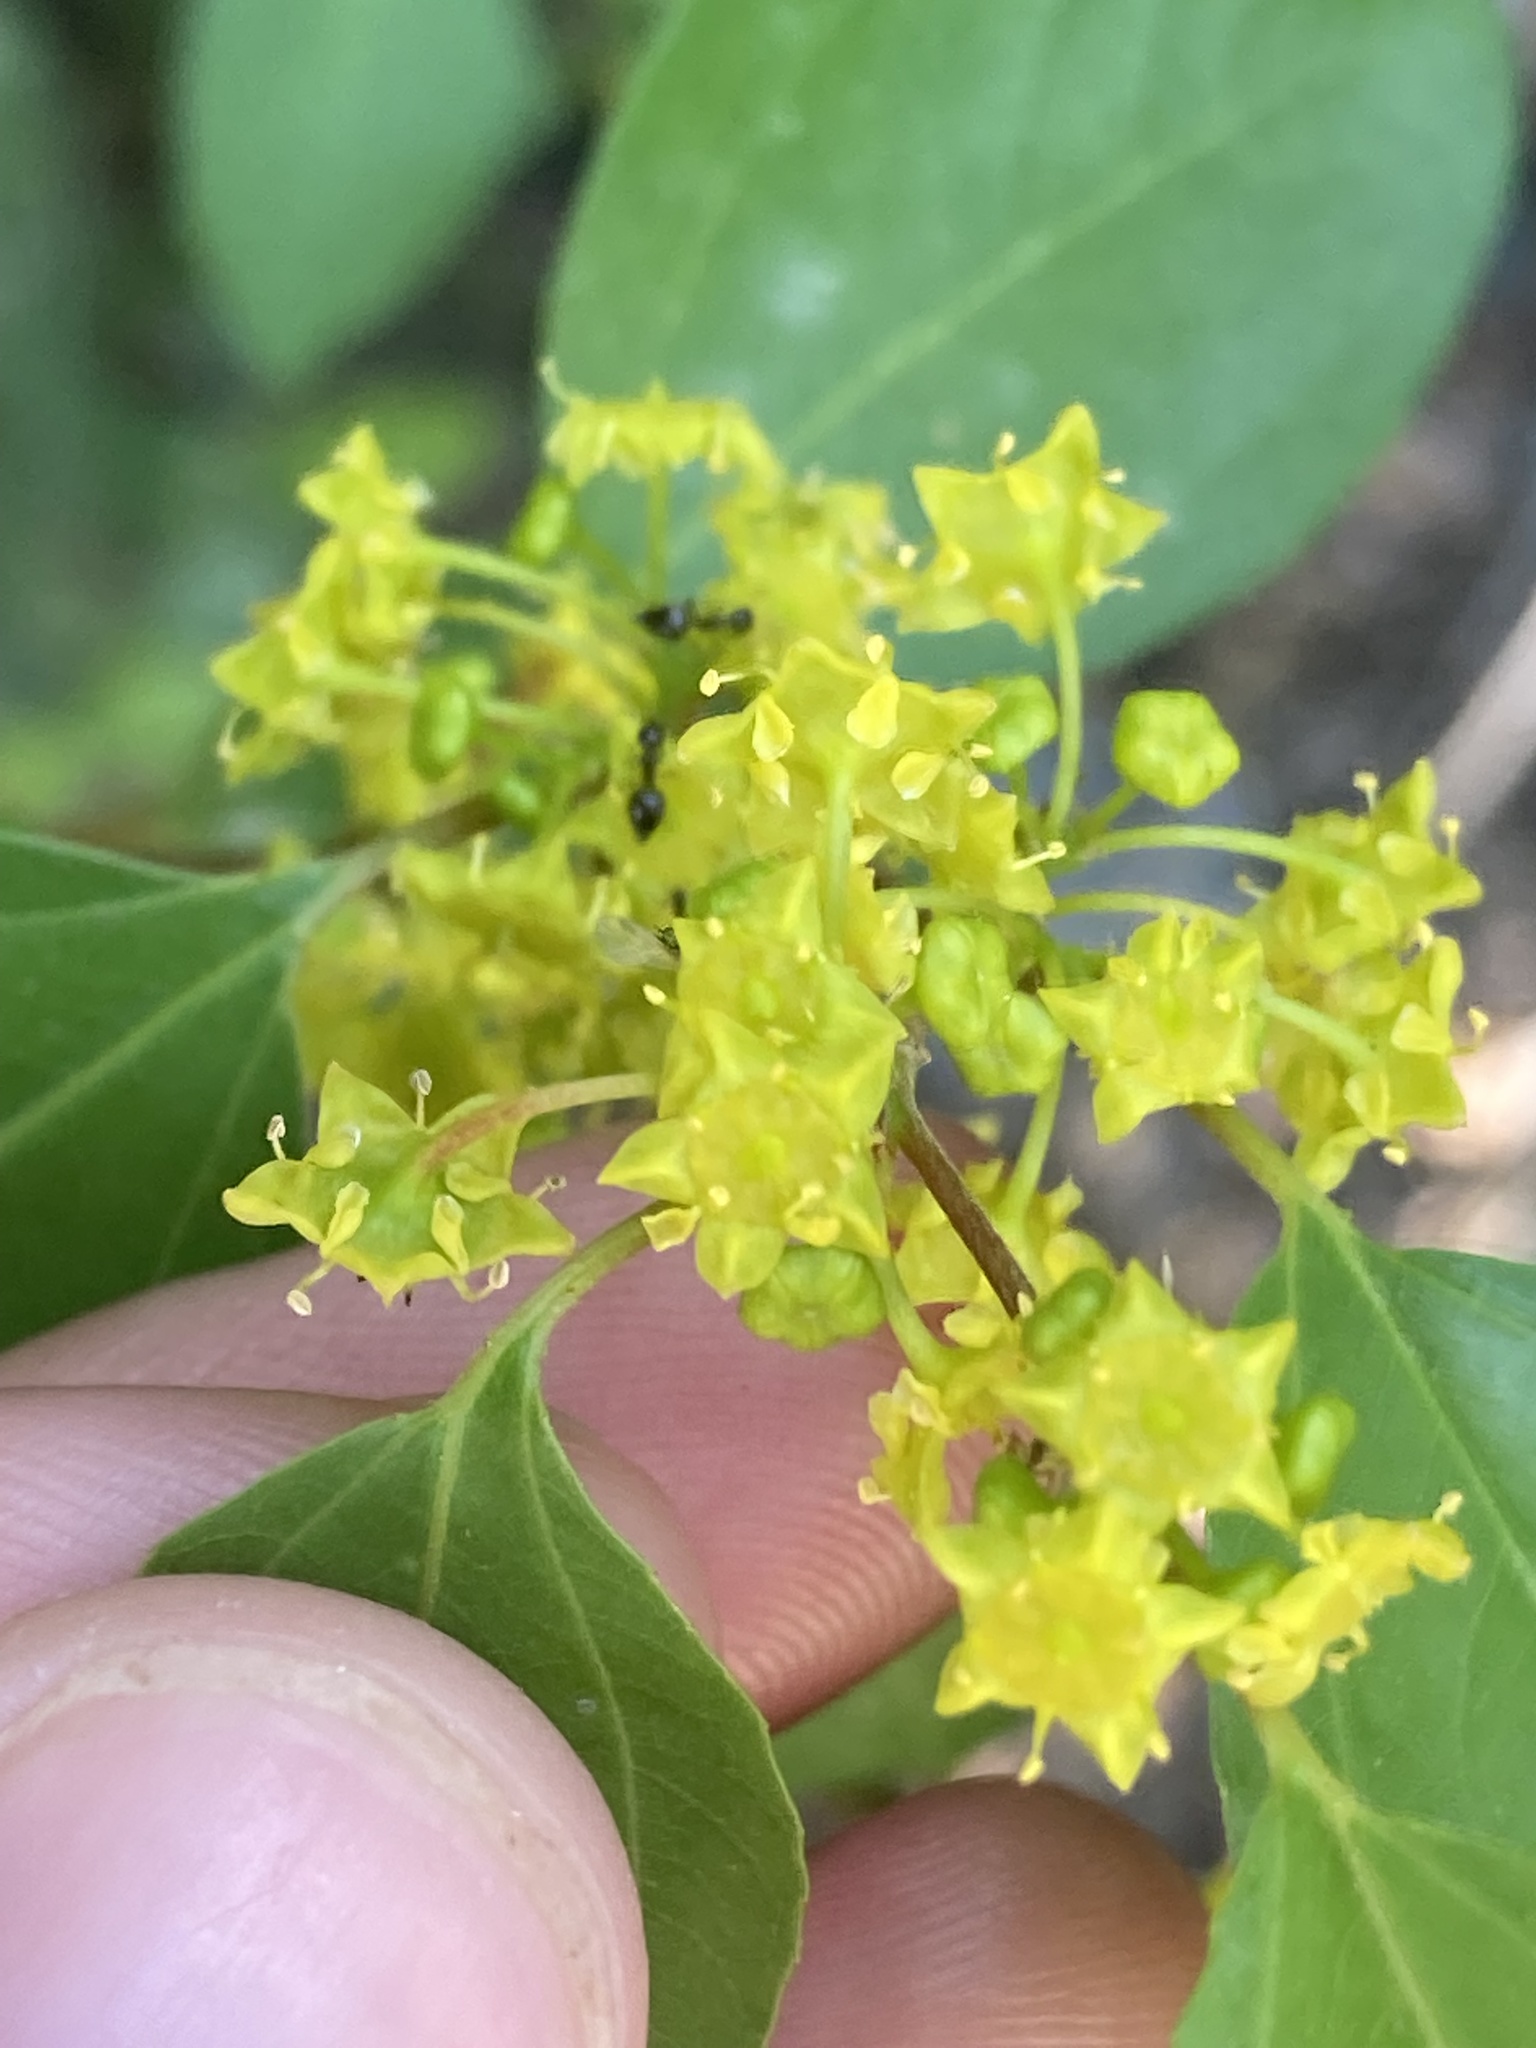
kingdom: Plantae
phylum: Tracheophyta
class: Magnoliopsida
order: Rosales
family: Rhamnaceae
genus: Paliurus
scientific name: Paliurus spina-christi
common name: Jeruselem thorn
